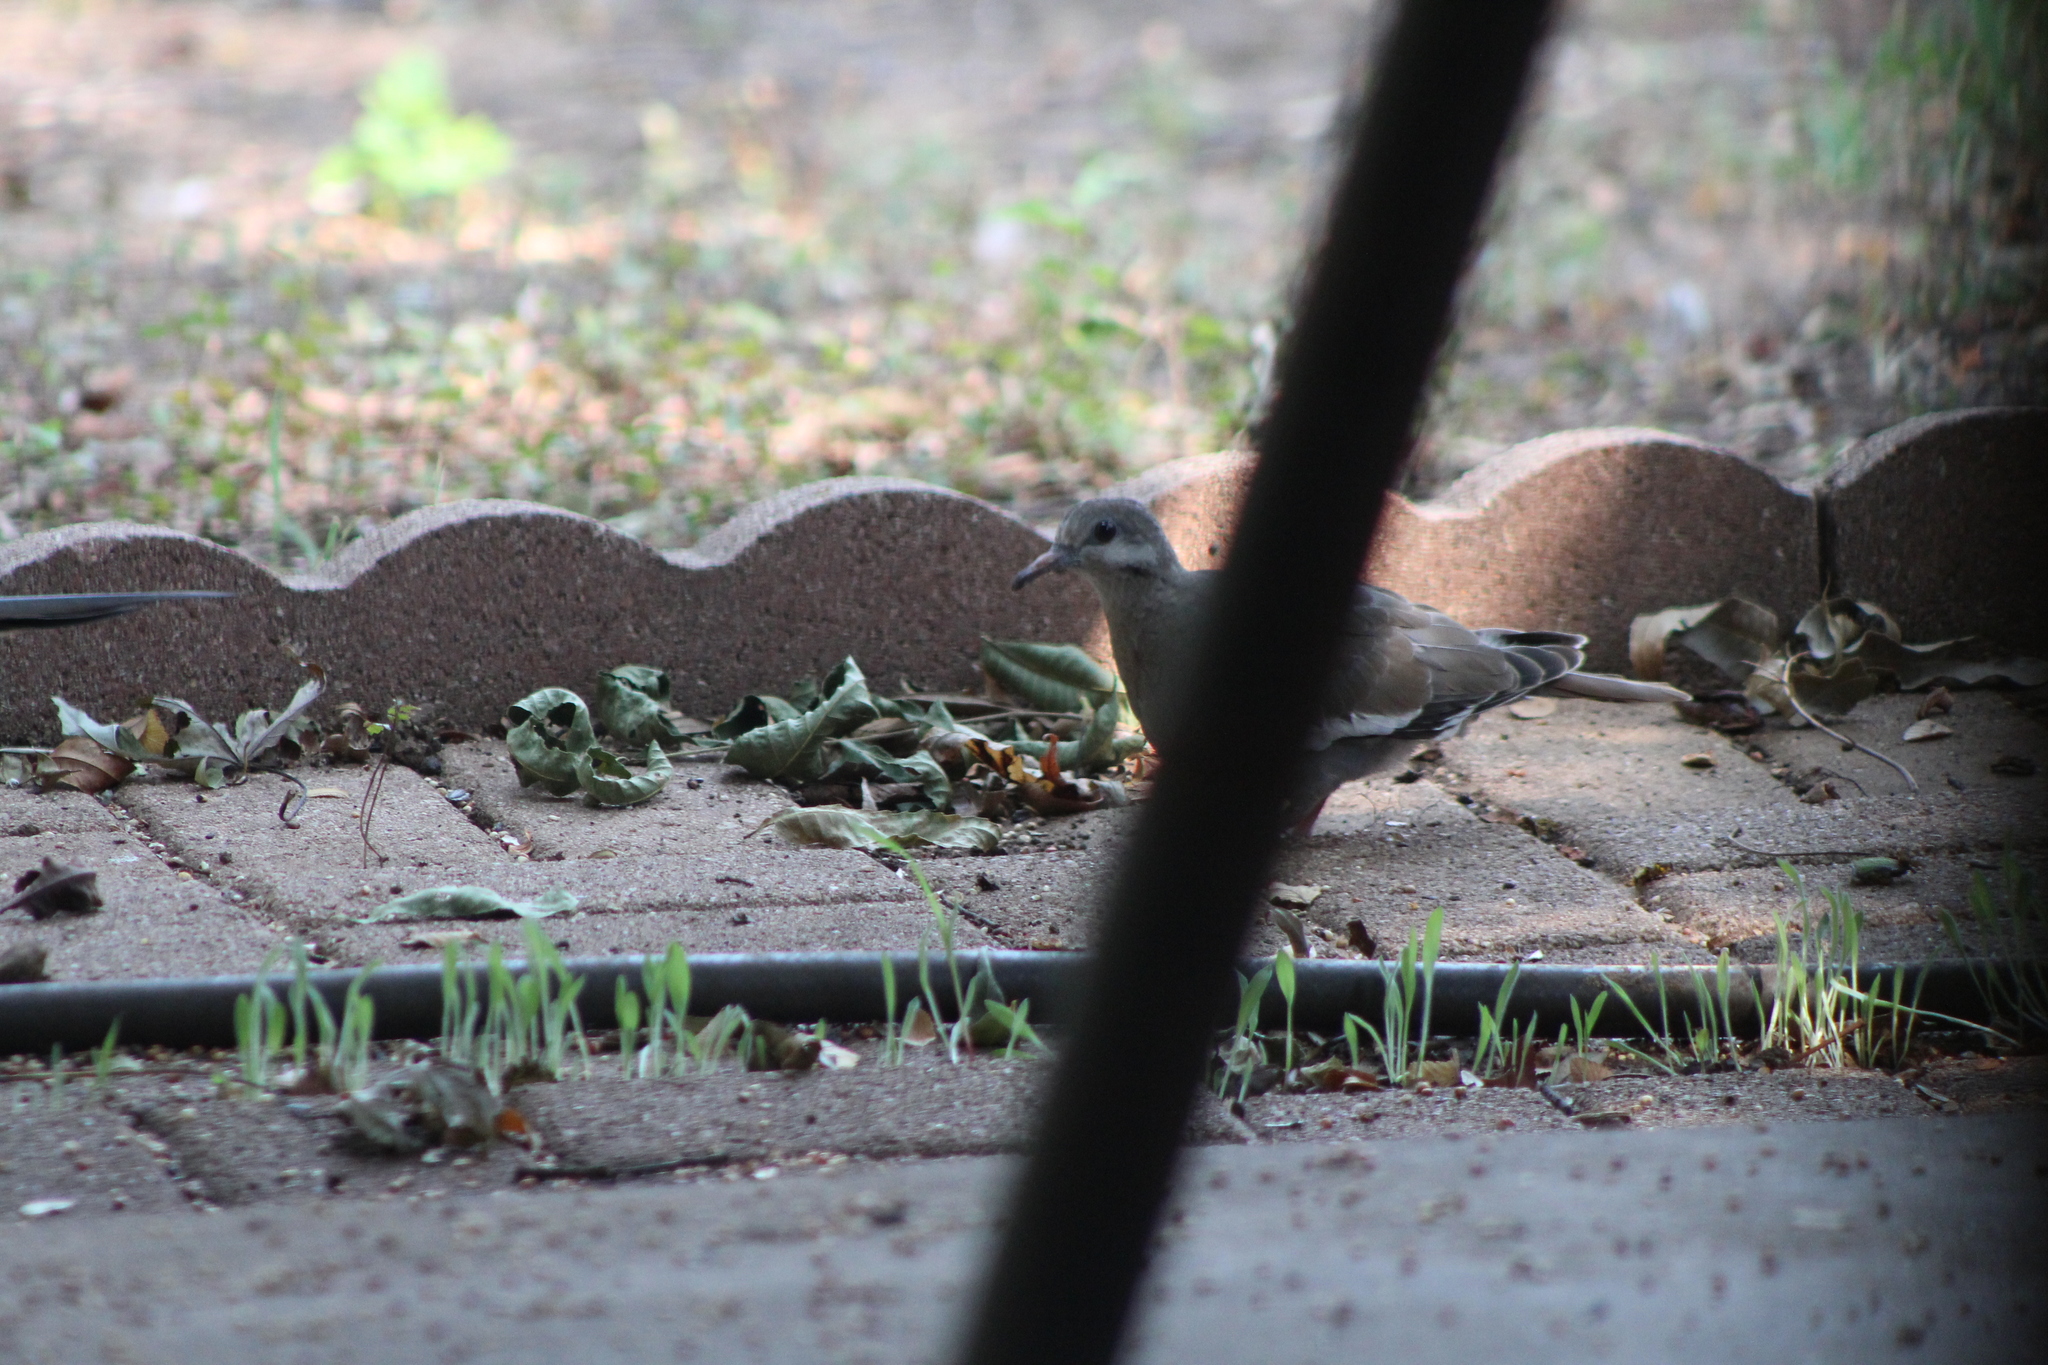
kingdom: Animalia
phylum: Chordata
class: Aves
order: Columbiformes
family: Columbidae
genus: Zenaida
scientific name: Zenaida asiatica
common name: White-winged dove
